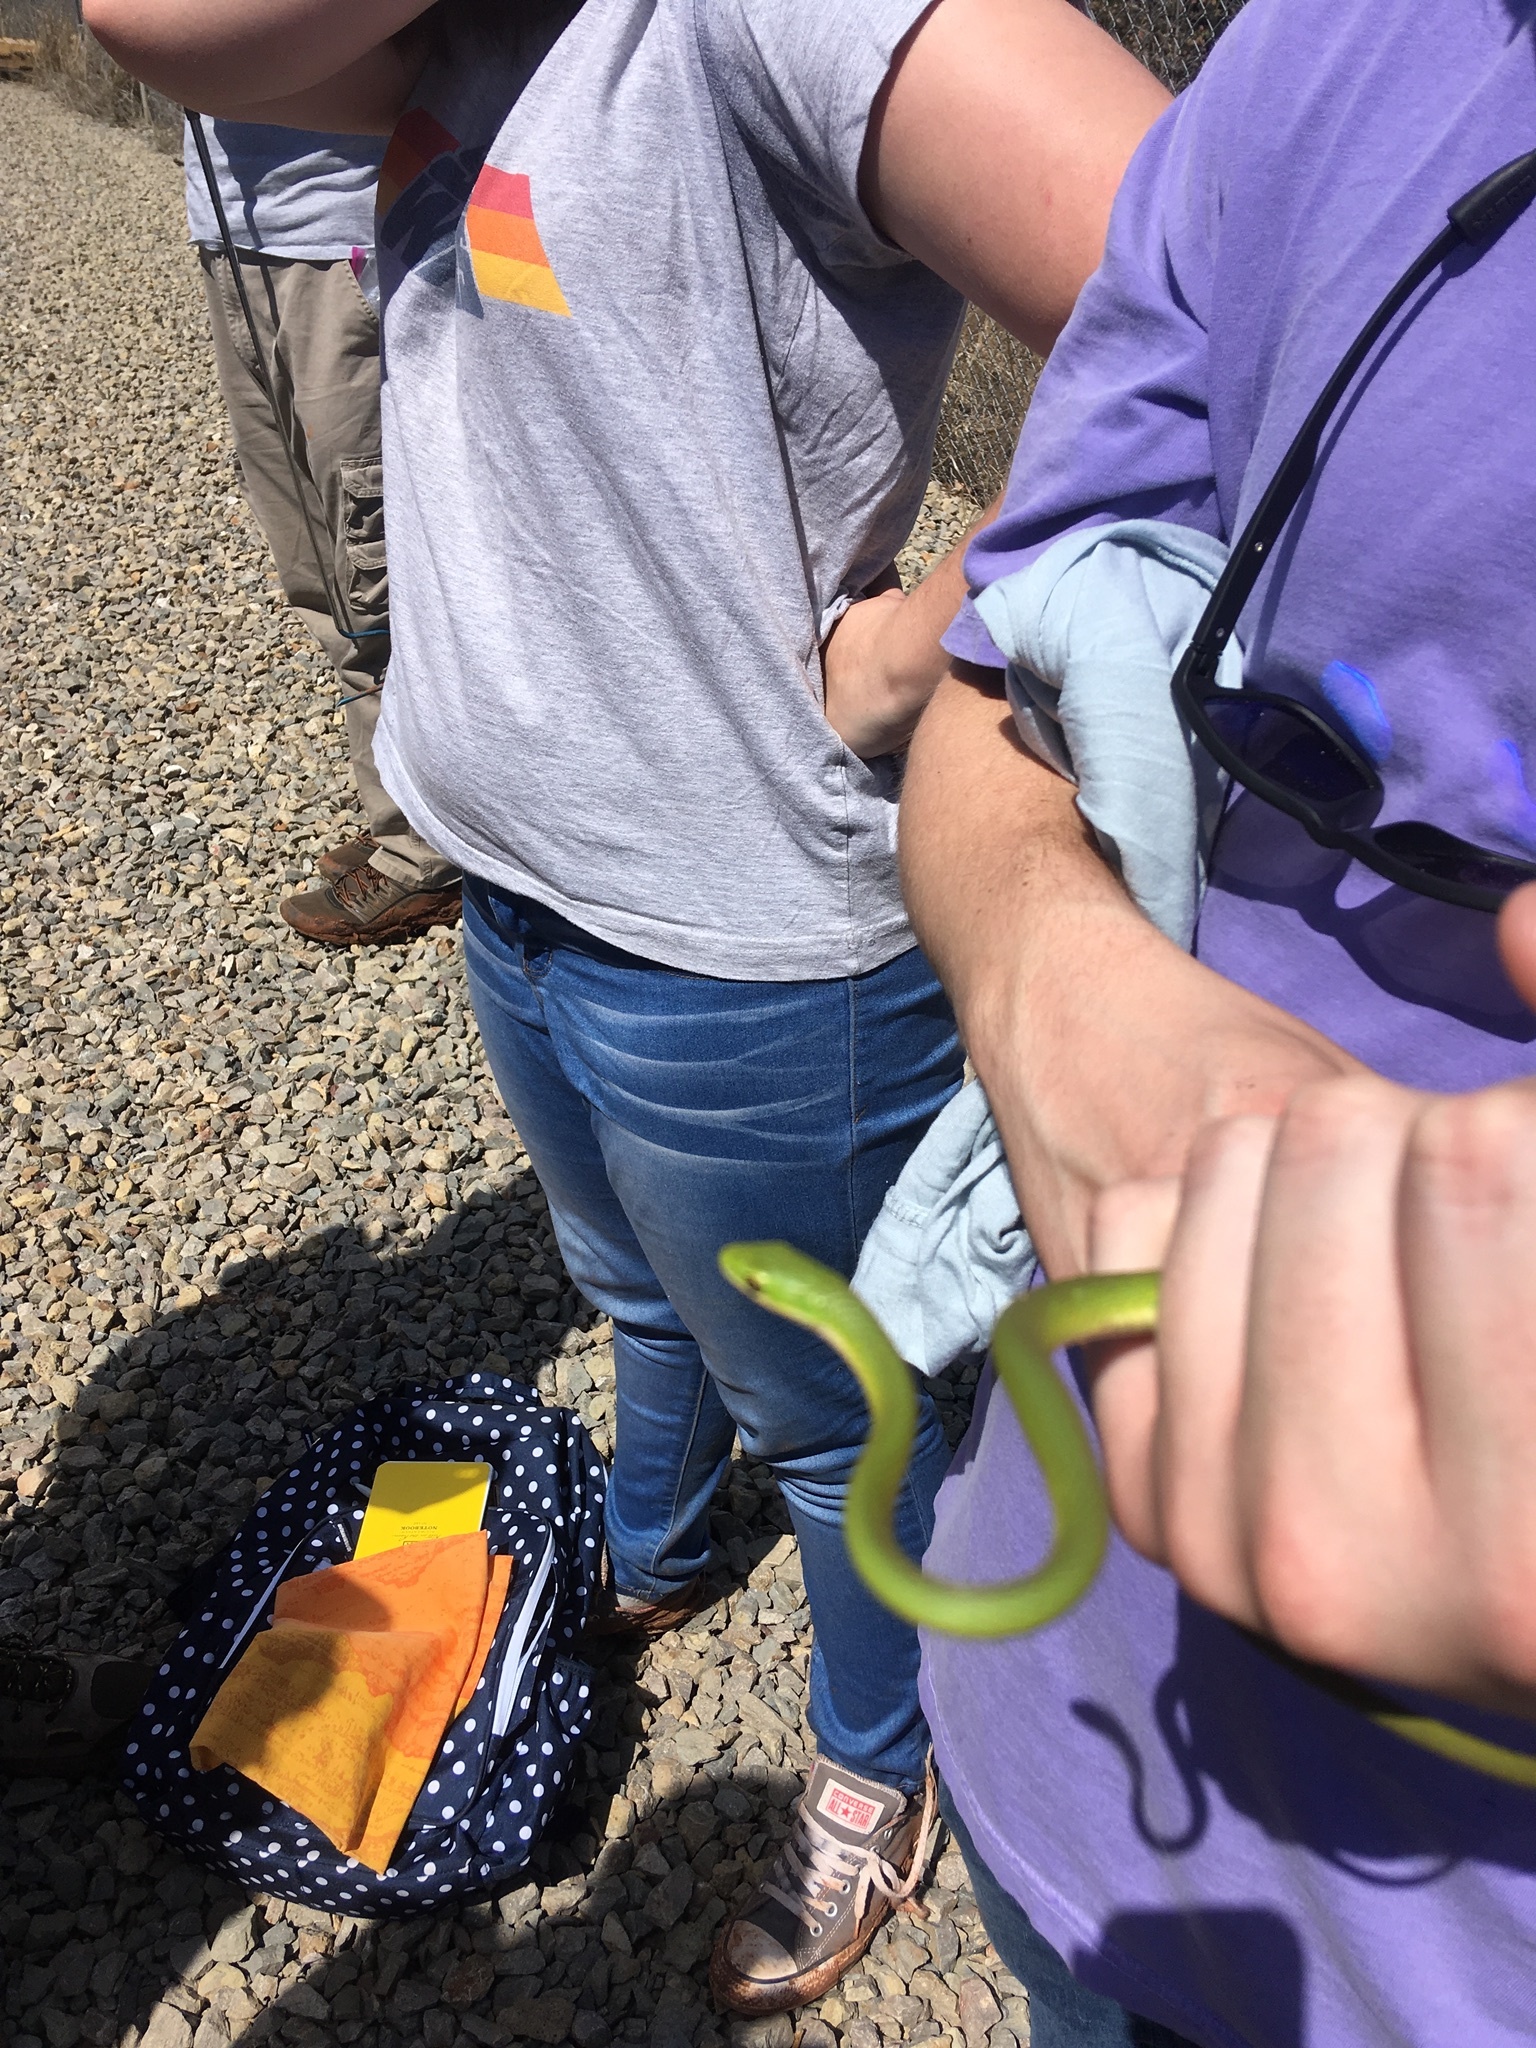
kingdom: Animalia
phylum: Chordata
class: Squamata
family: Colubridae
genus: Opheodrys
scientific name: Opheodrys aestivus
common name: Rough greensnake
